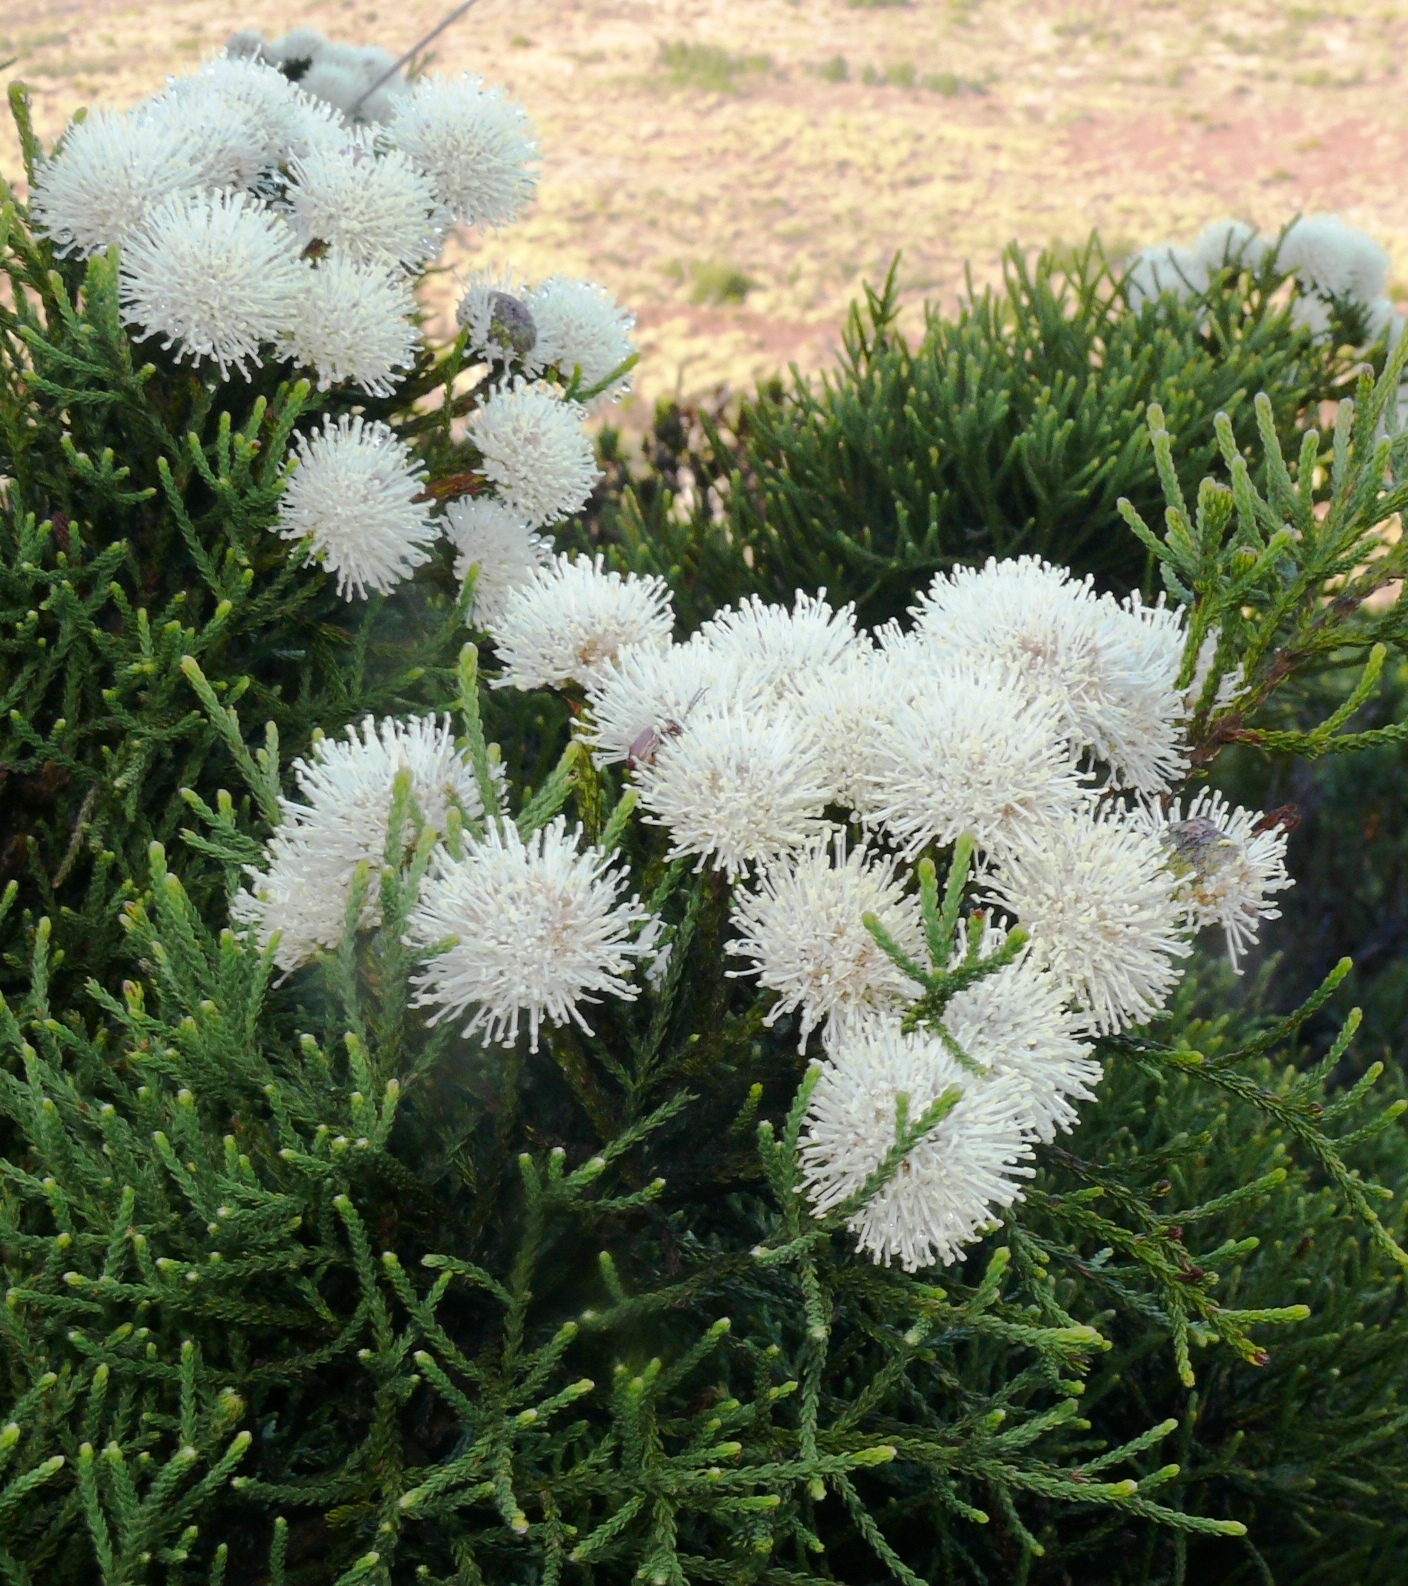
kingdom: Plantae
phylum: Tracheophyta
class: Magnoliopsida
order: Bruniales
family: Bruniaceae
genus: Brunia
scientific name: Brunia noduliflora
